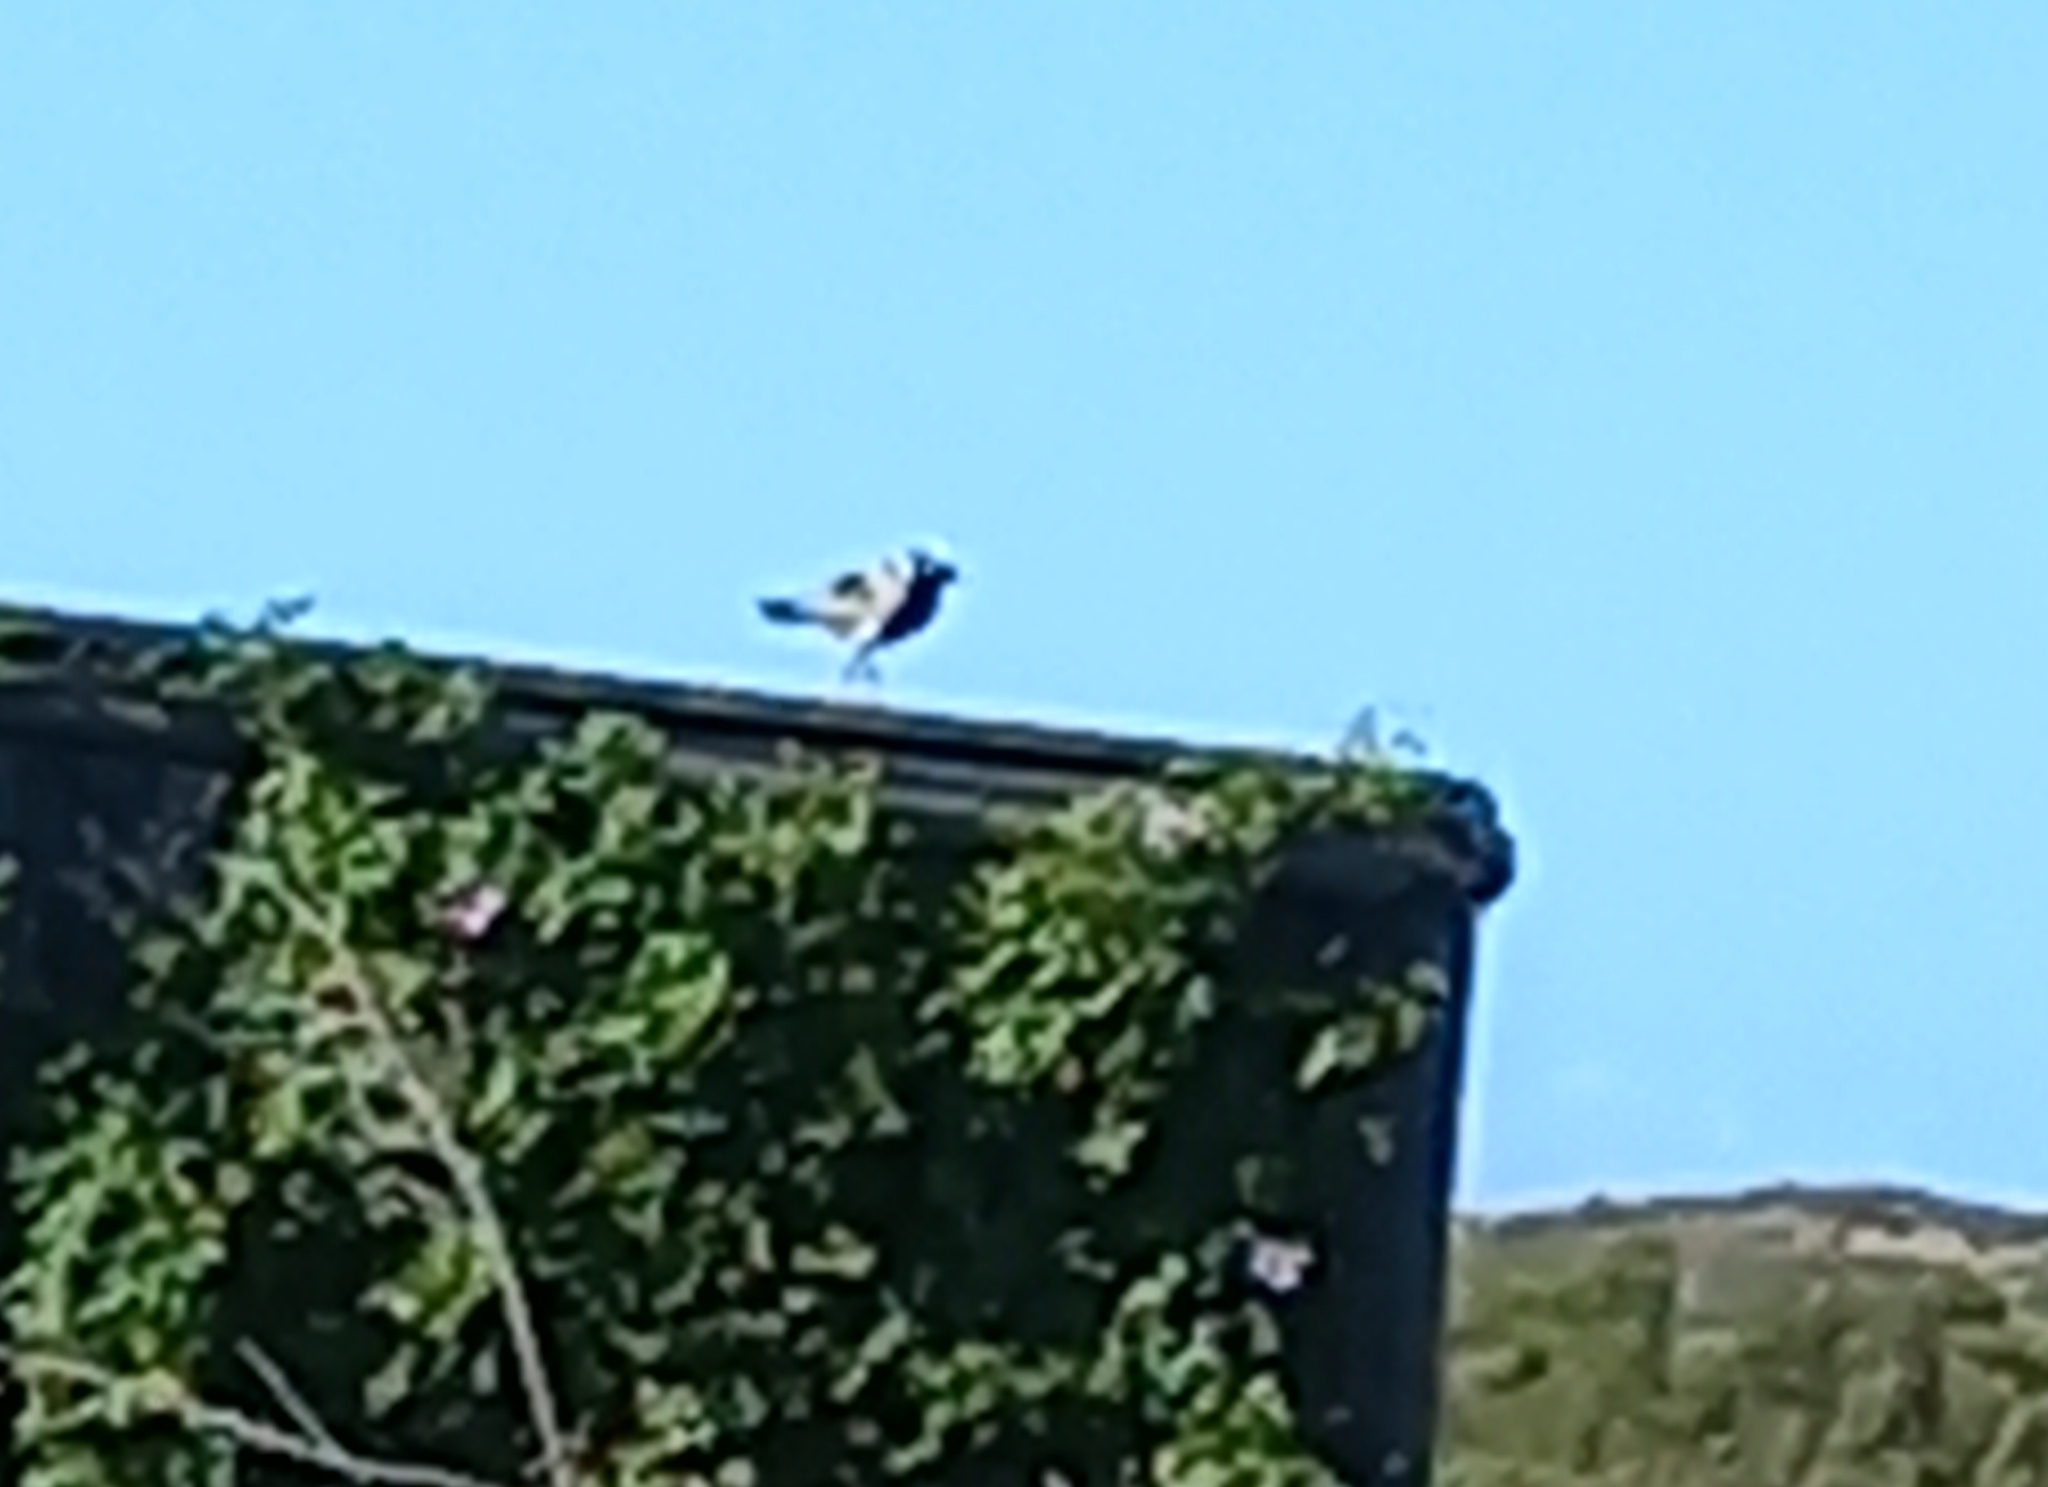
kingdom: Animalia
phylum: Chordata
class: Aves
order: Charadriiformes
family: Charadriidae
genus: Vanellus
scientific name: Vanellus armatus
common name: Blacksmith lapwing
